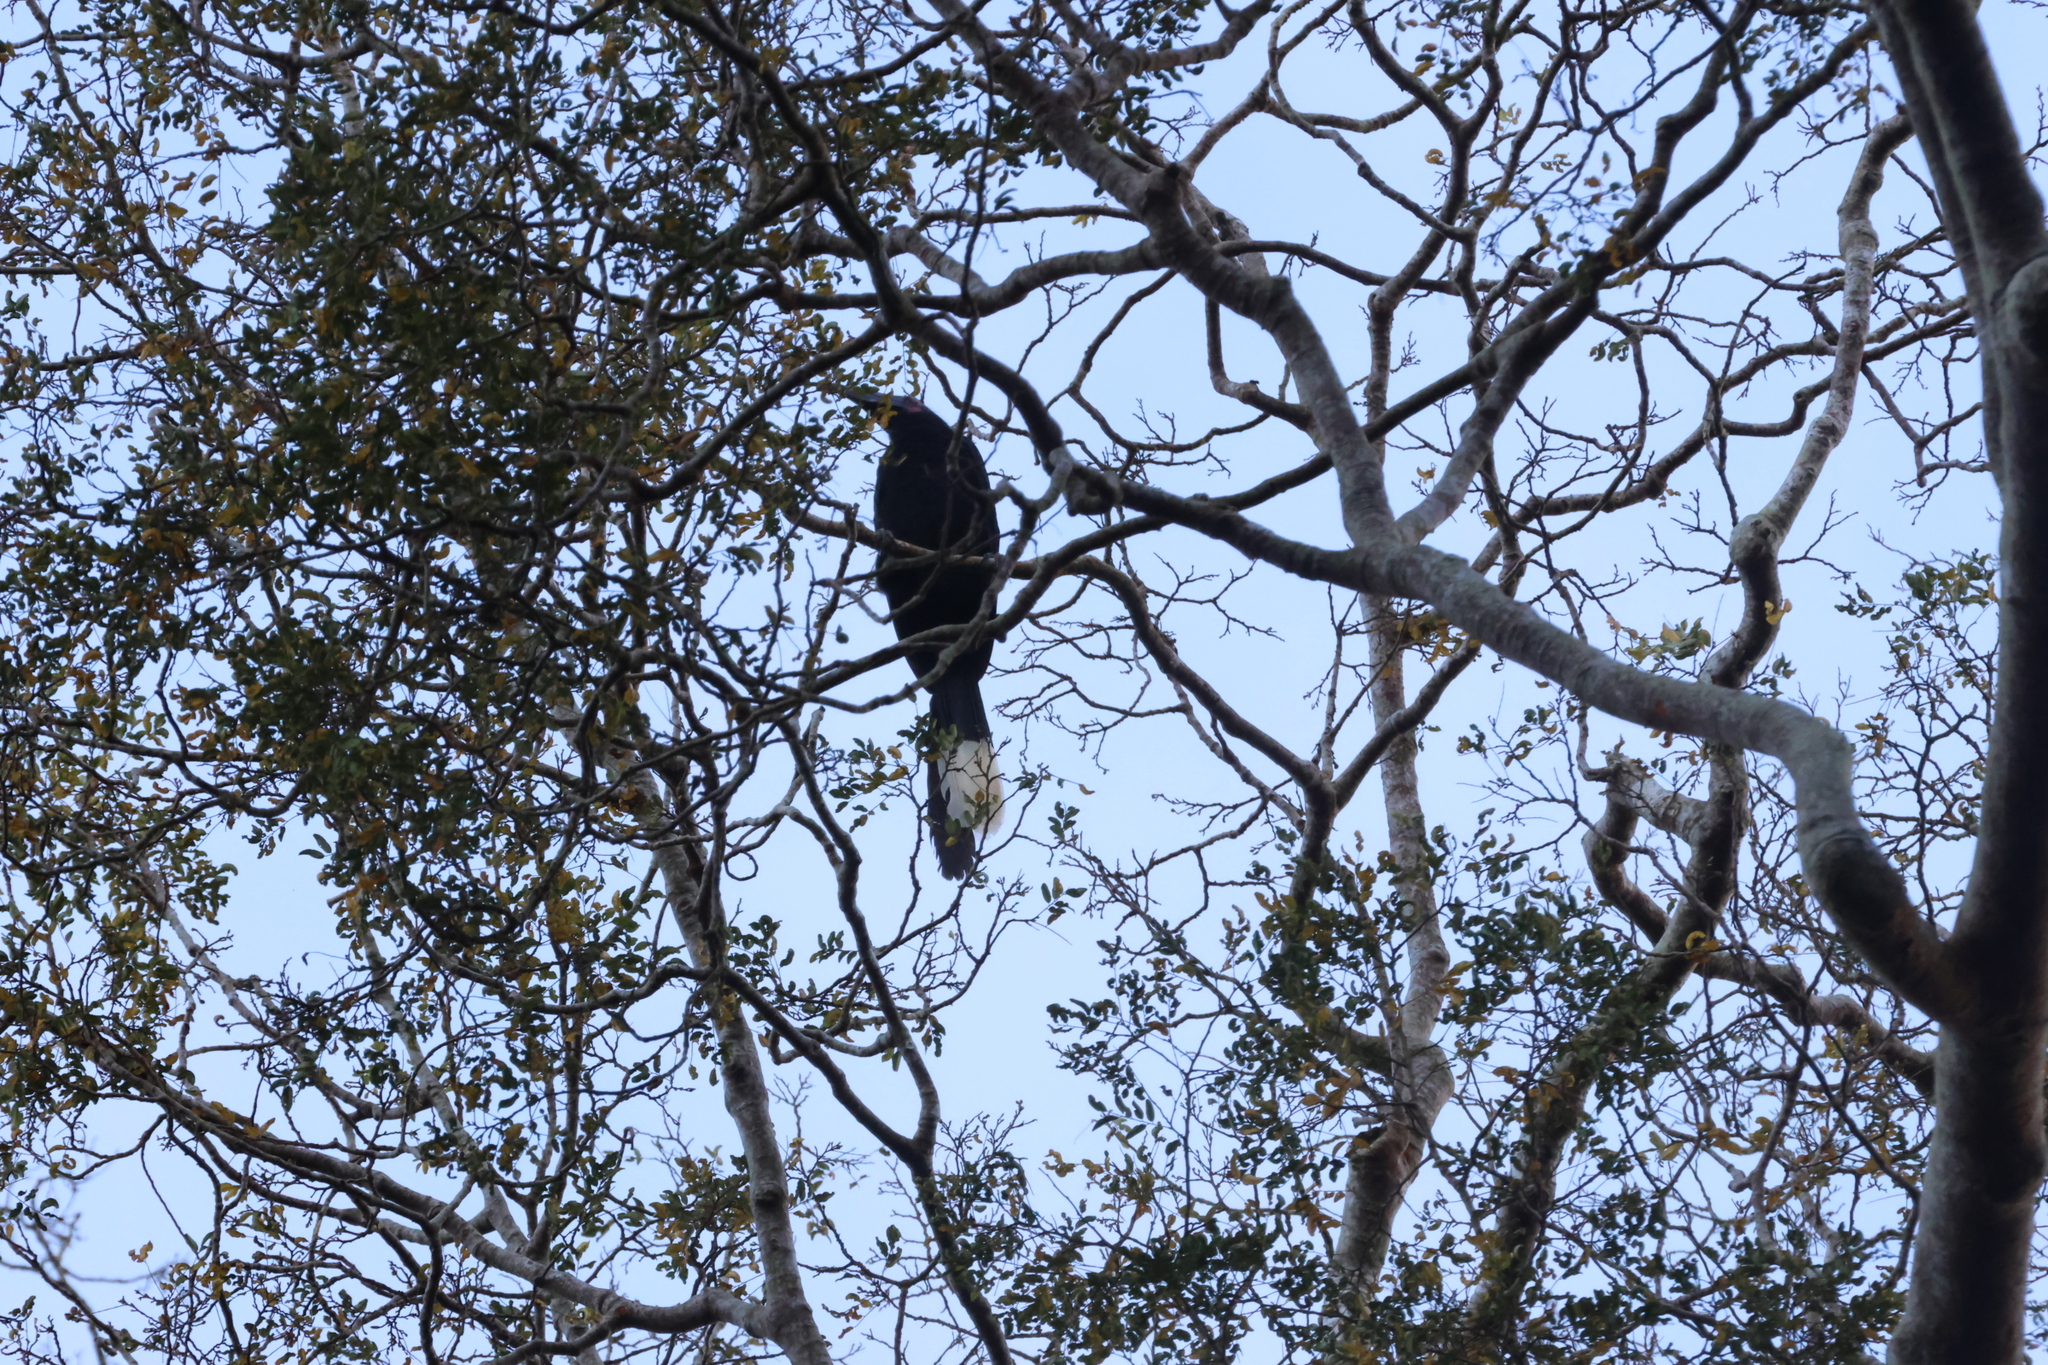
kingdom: Animalia
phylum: Chordata
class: Aves
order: Bucerotiformes
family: Bucerotidae
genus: Anthracoceros
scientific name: Anthracoceros malayanus
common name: Black hornbill
